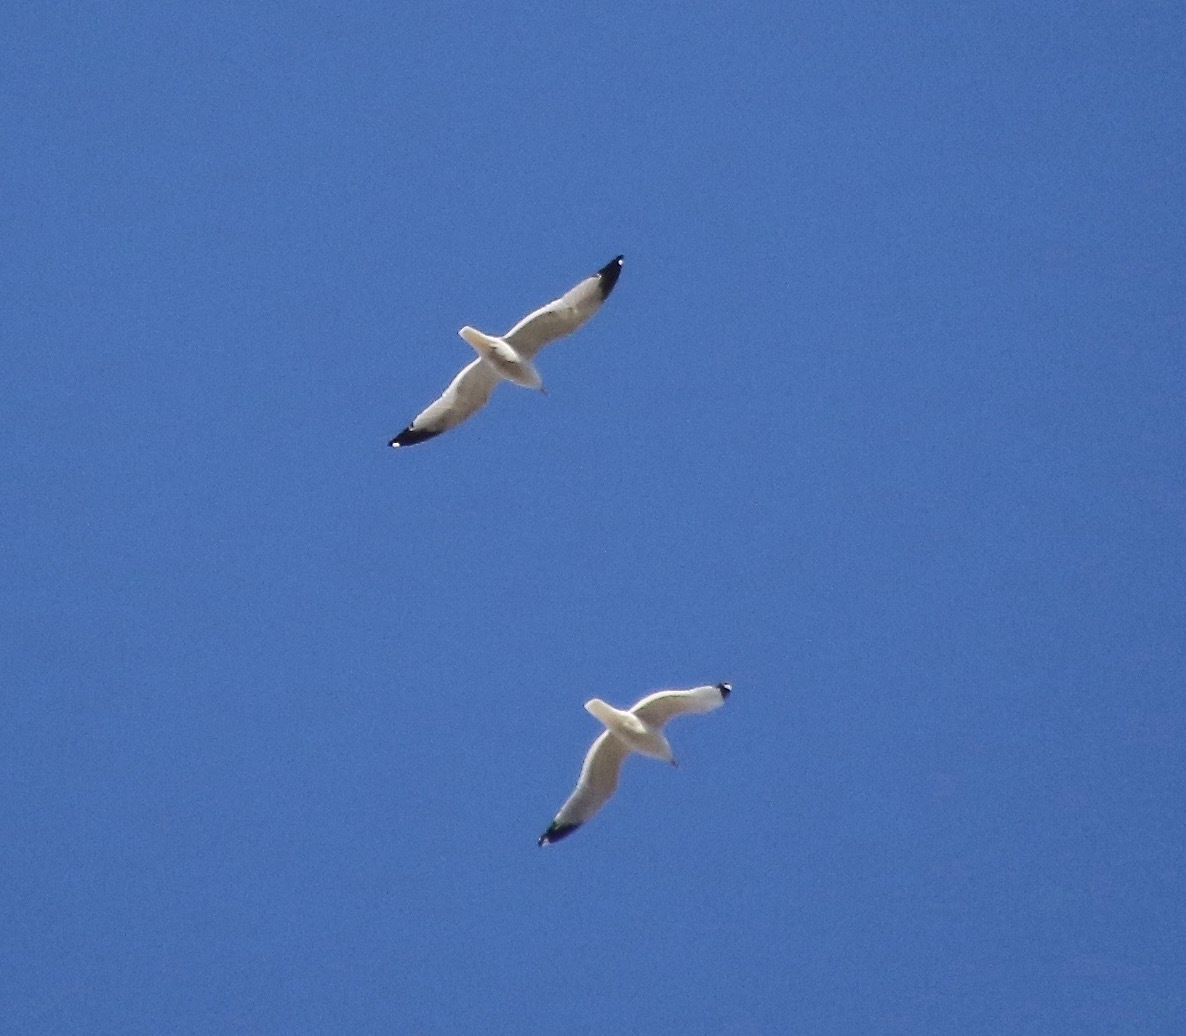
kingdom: Animalia
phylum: Chordata
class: Aves
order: Charadriiformes
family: Laridae
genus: Larus
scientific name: Larus delawarensis
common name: Ring-billed gull
